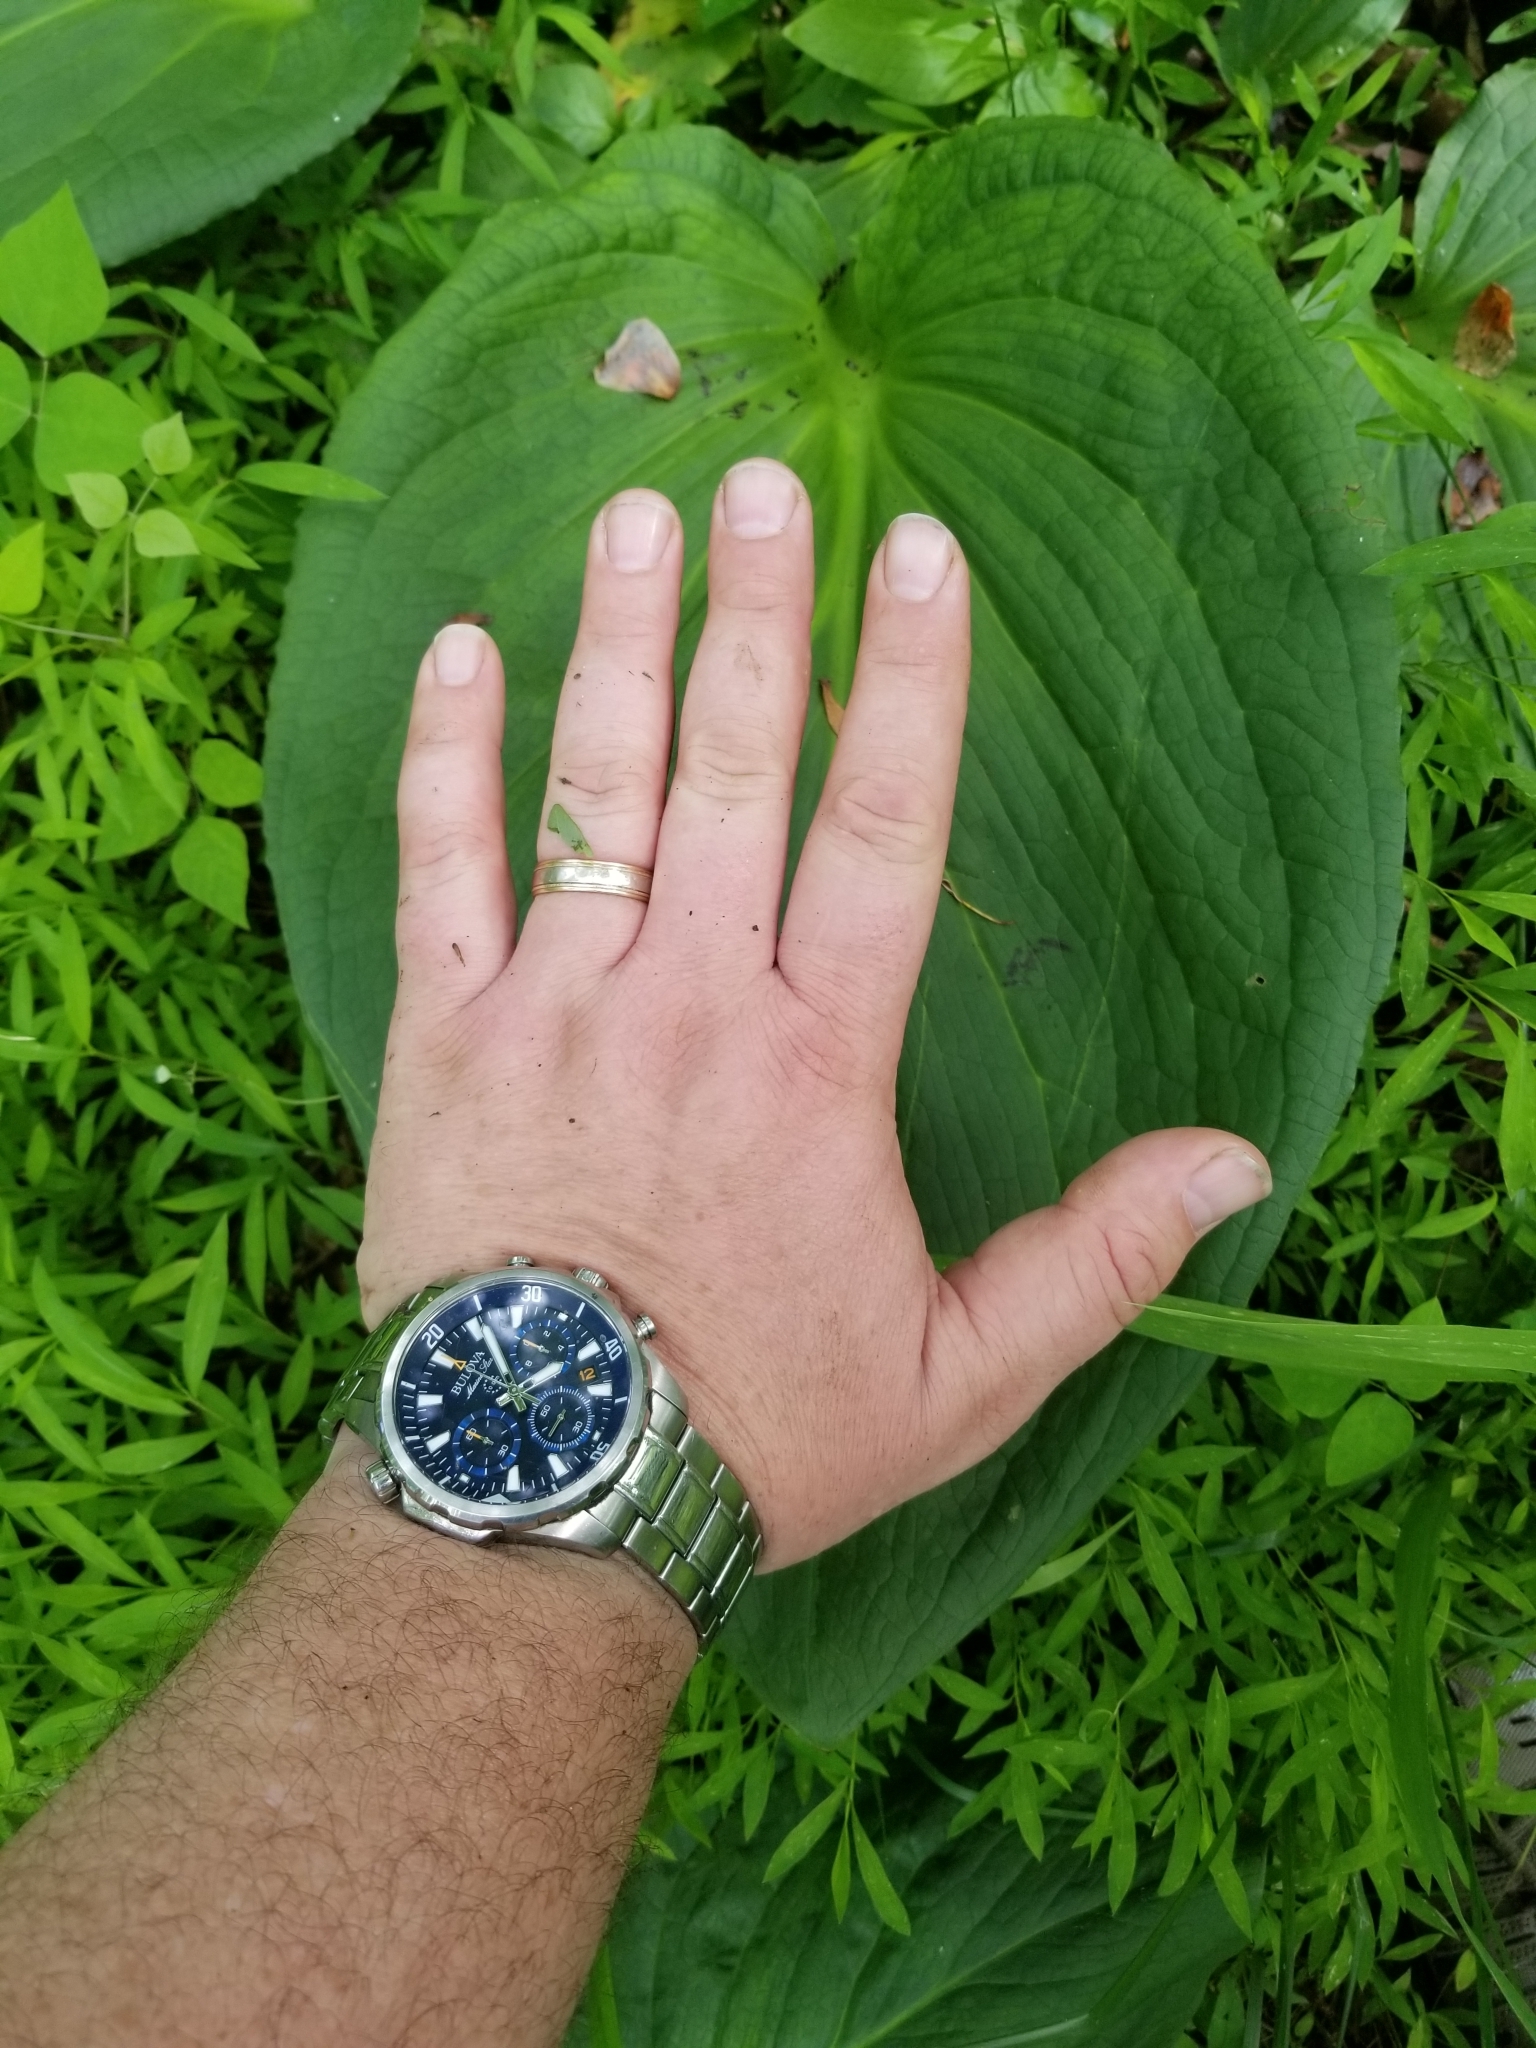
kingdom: Plantae
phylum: Tracheophyta
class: Liliopsida
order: Alismatales
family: Araceae
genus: Symplocarpus
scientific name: Symplocarpus foetidus
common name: Eastern skunk cabbage
